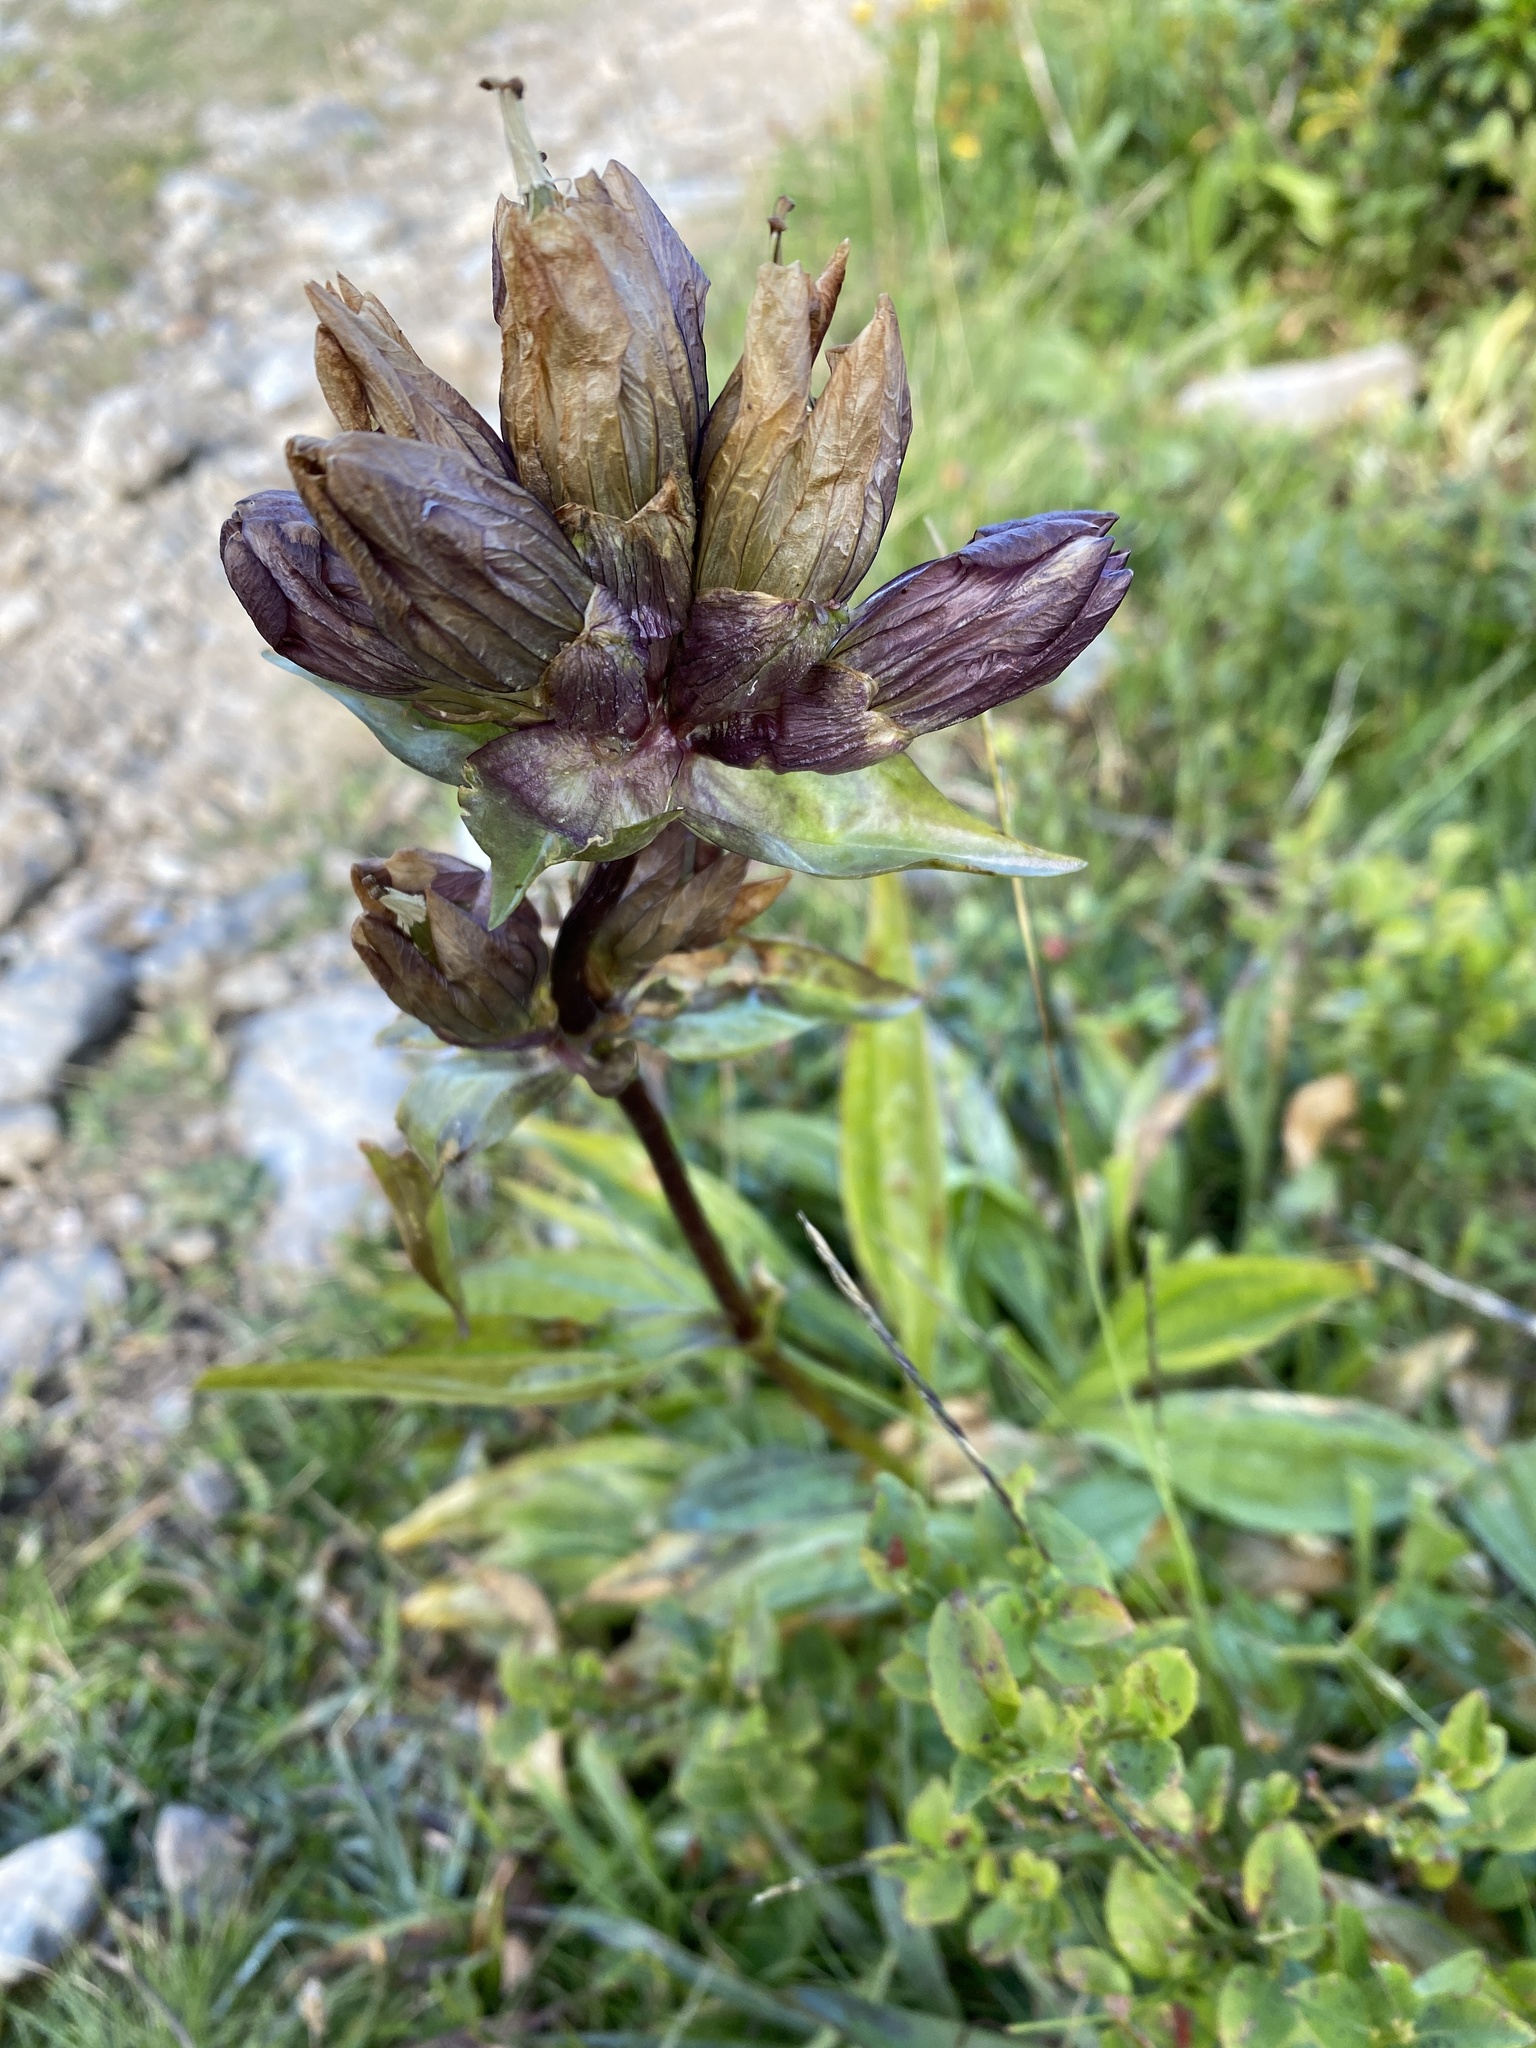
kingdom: Plantae
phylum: Tracheophyta
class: Magnoliopsida
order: Gentianales
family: Gentianaceae
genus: Gentiana
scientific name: Gentiana purpurea
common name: Purple gentian
